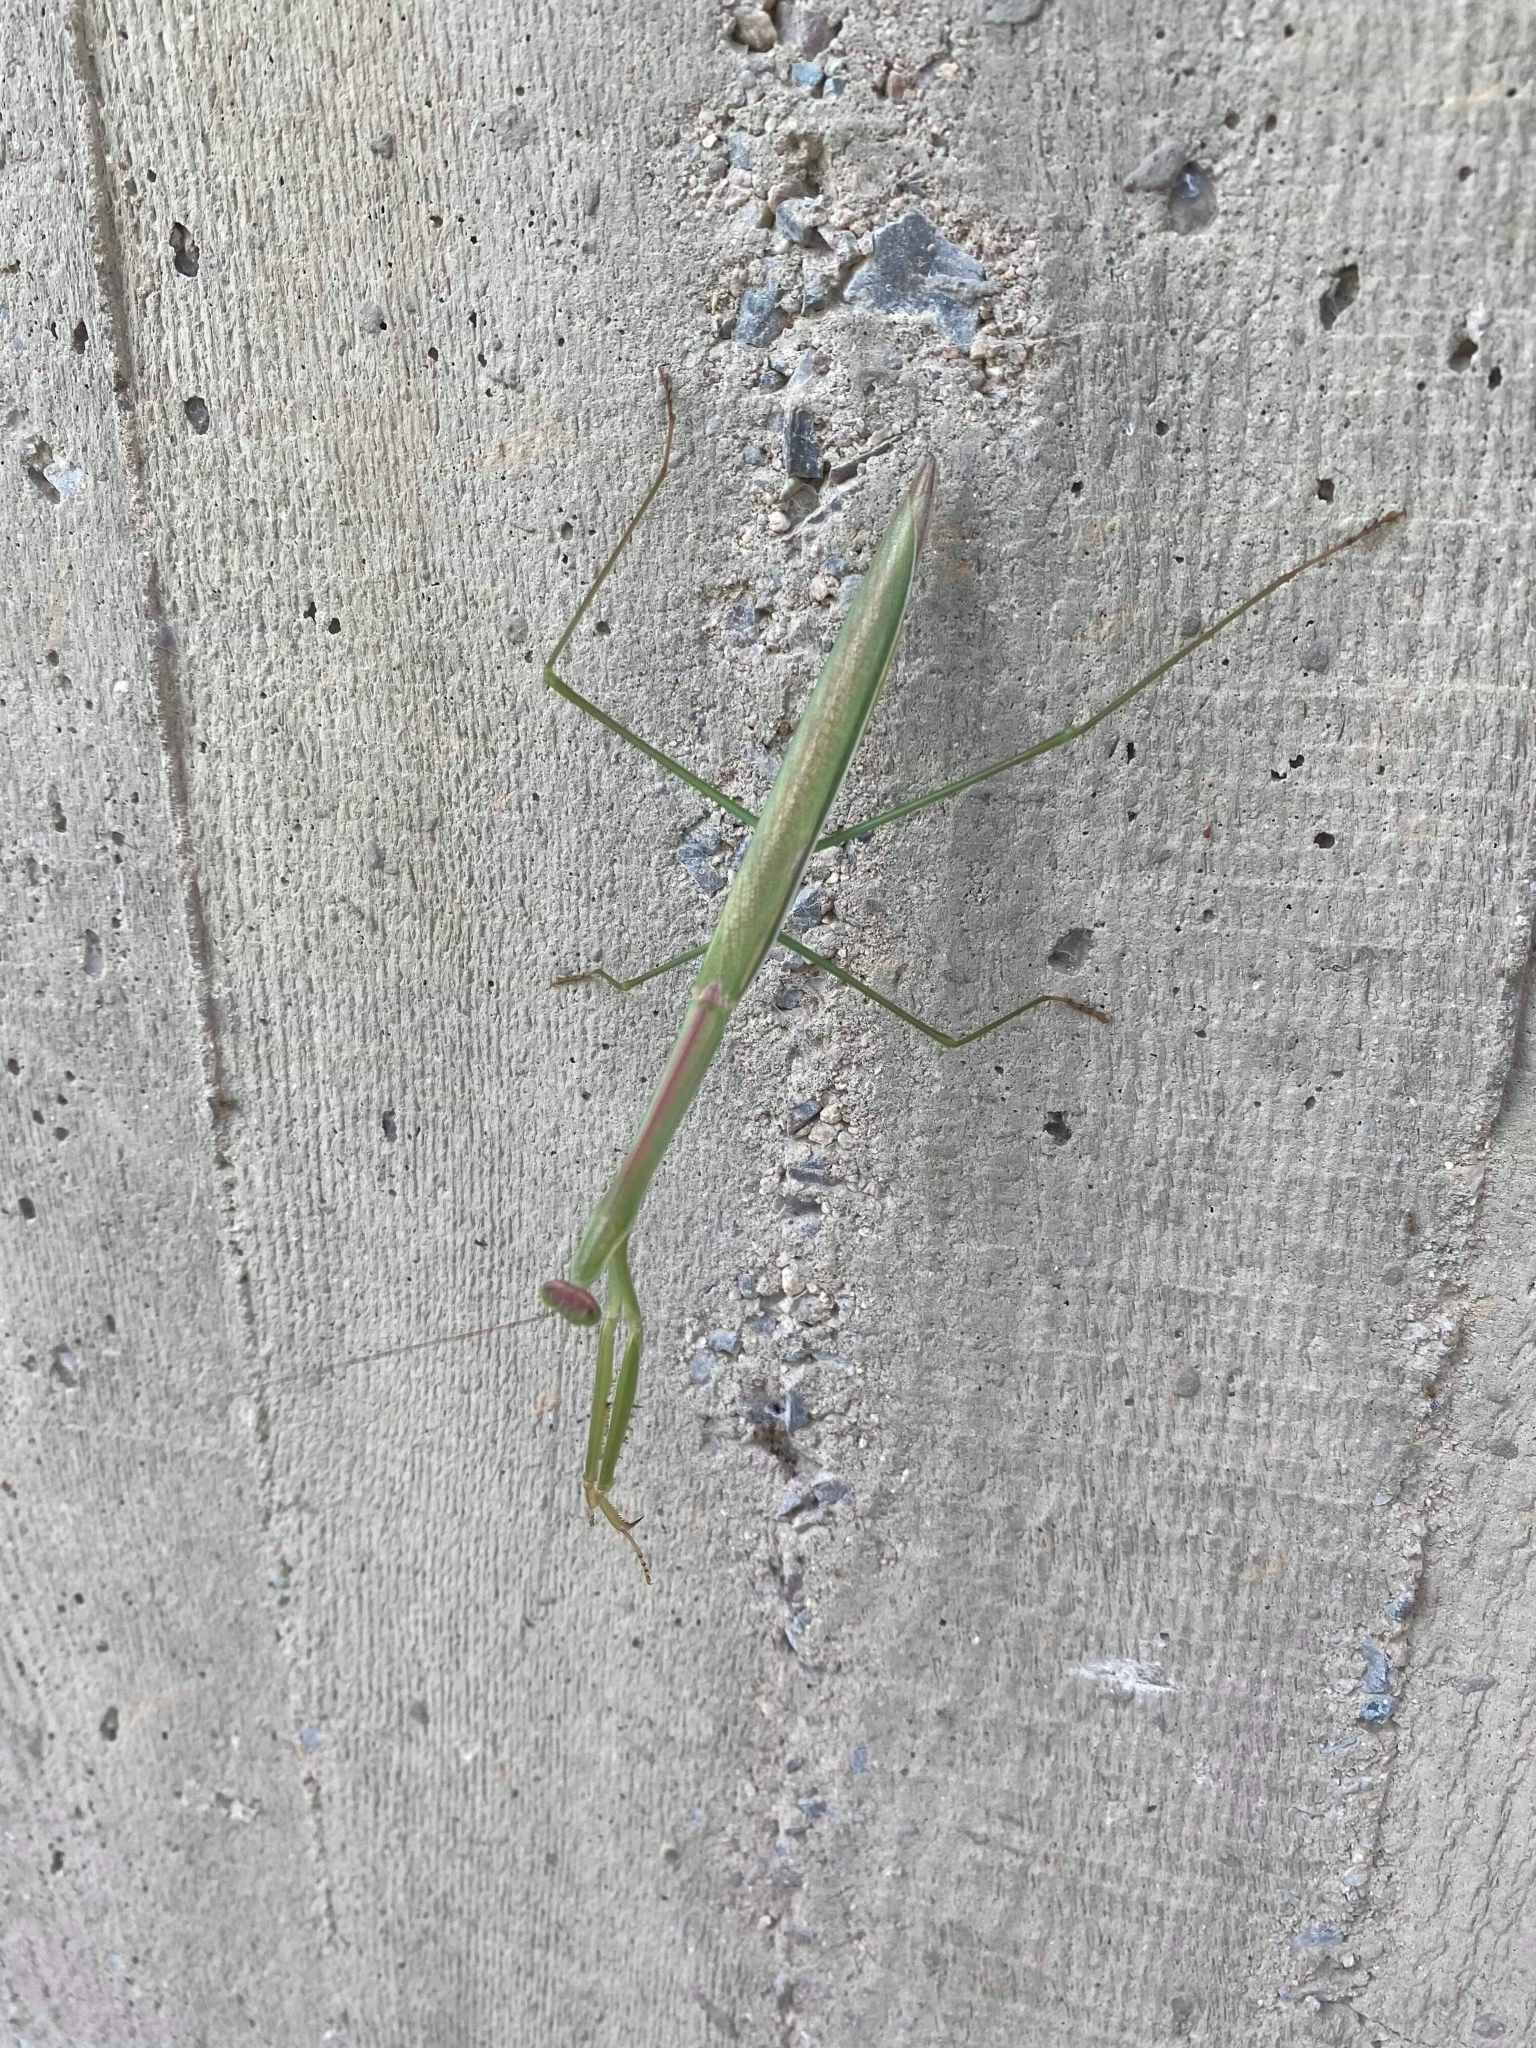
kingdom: Animalia
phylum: Arthropoda
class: Insecta
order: Mantodea
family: Mantidae
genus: Tenodera
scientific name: Tenodera
